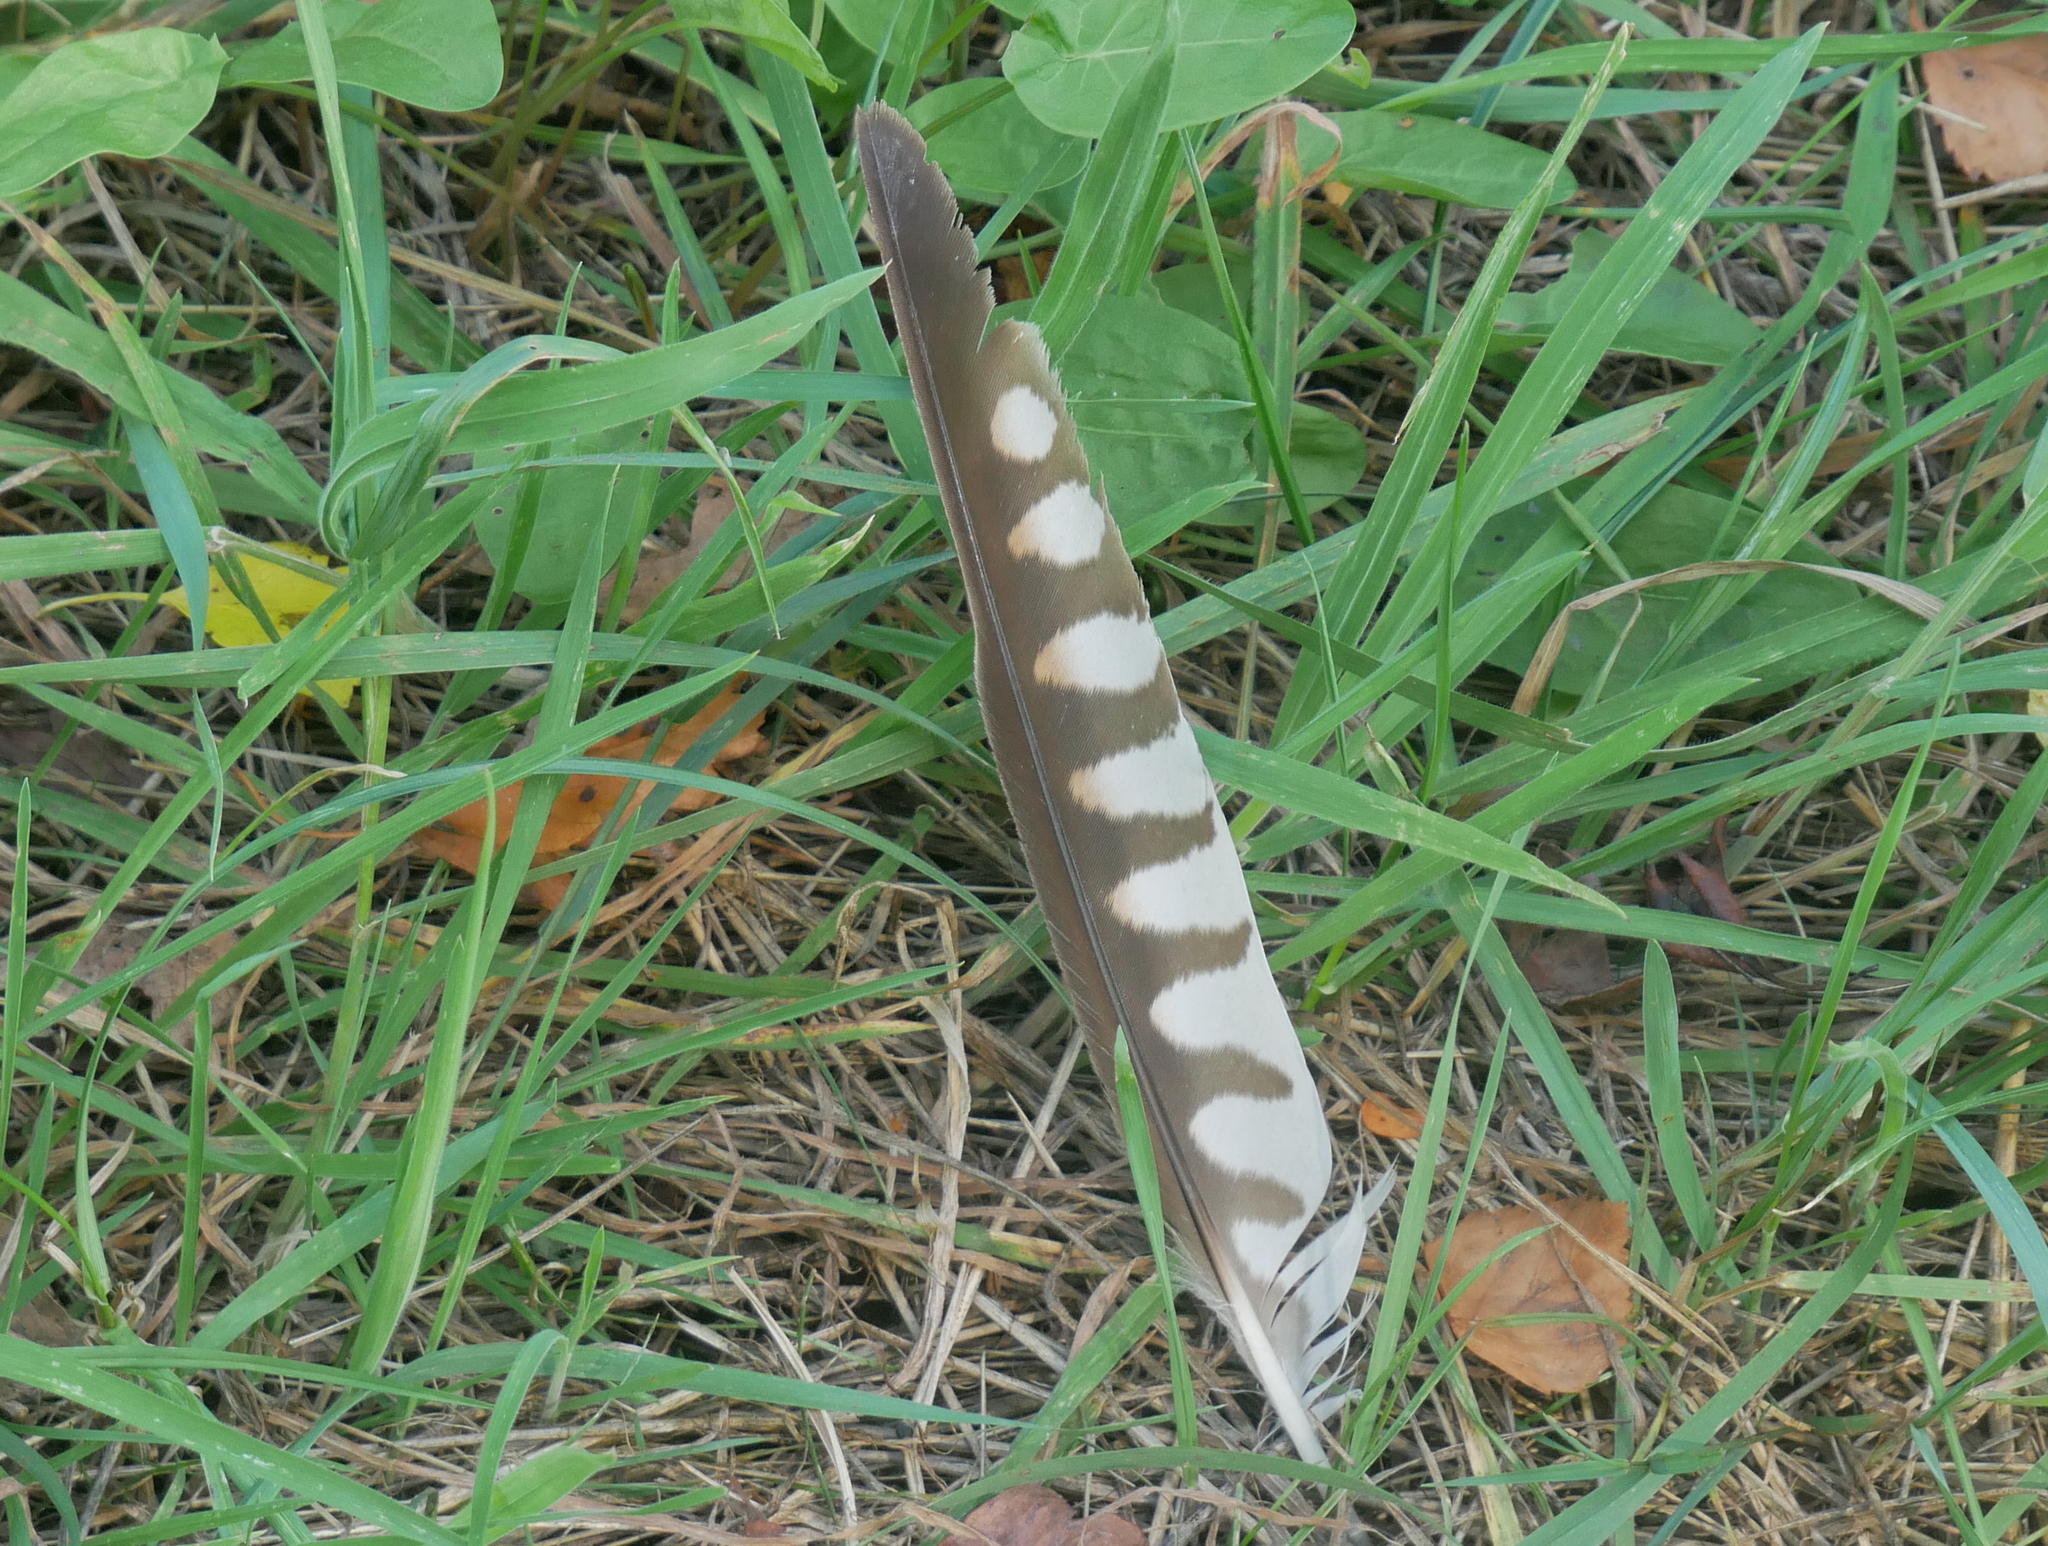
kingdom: Animalia
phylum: Chordata
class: Aves
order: Falconiformes
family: Falconidae
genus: Falco
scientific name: Falco tinnunculus
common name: Common kestrel
